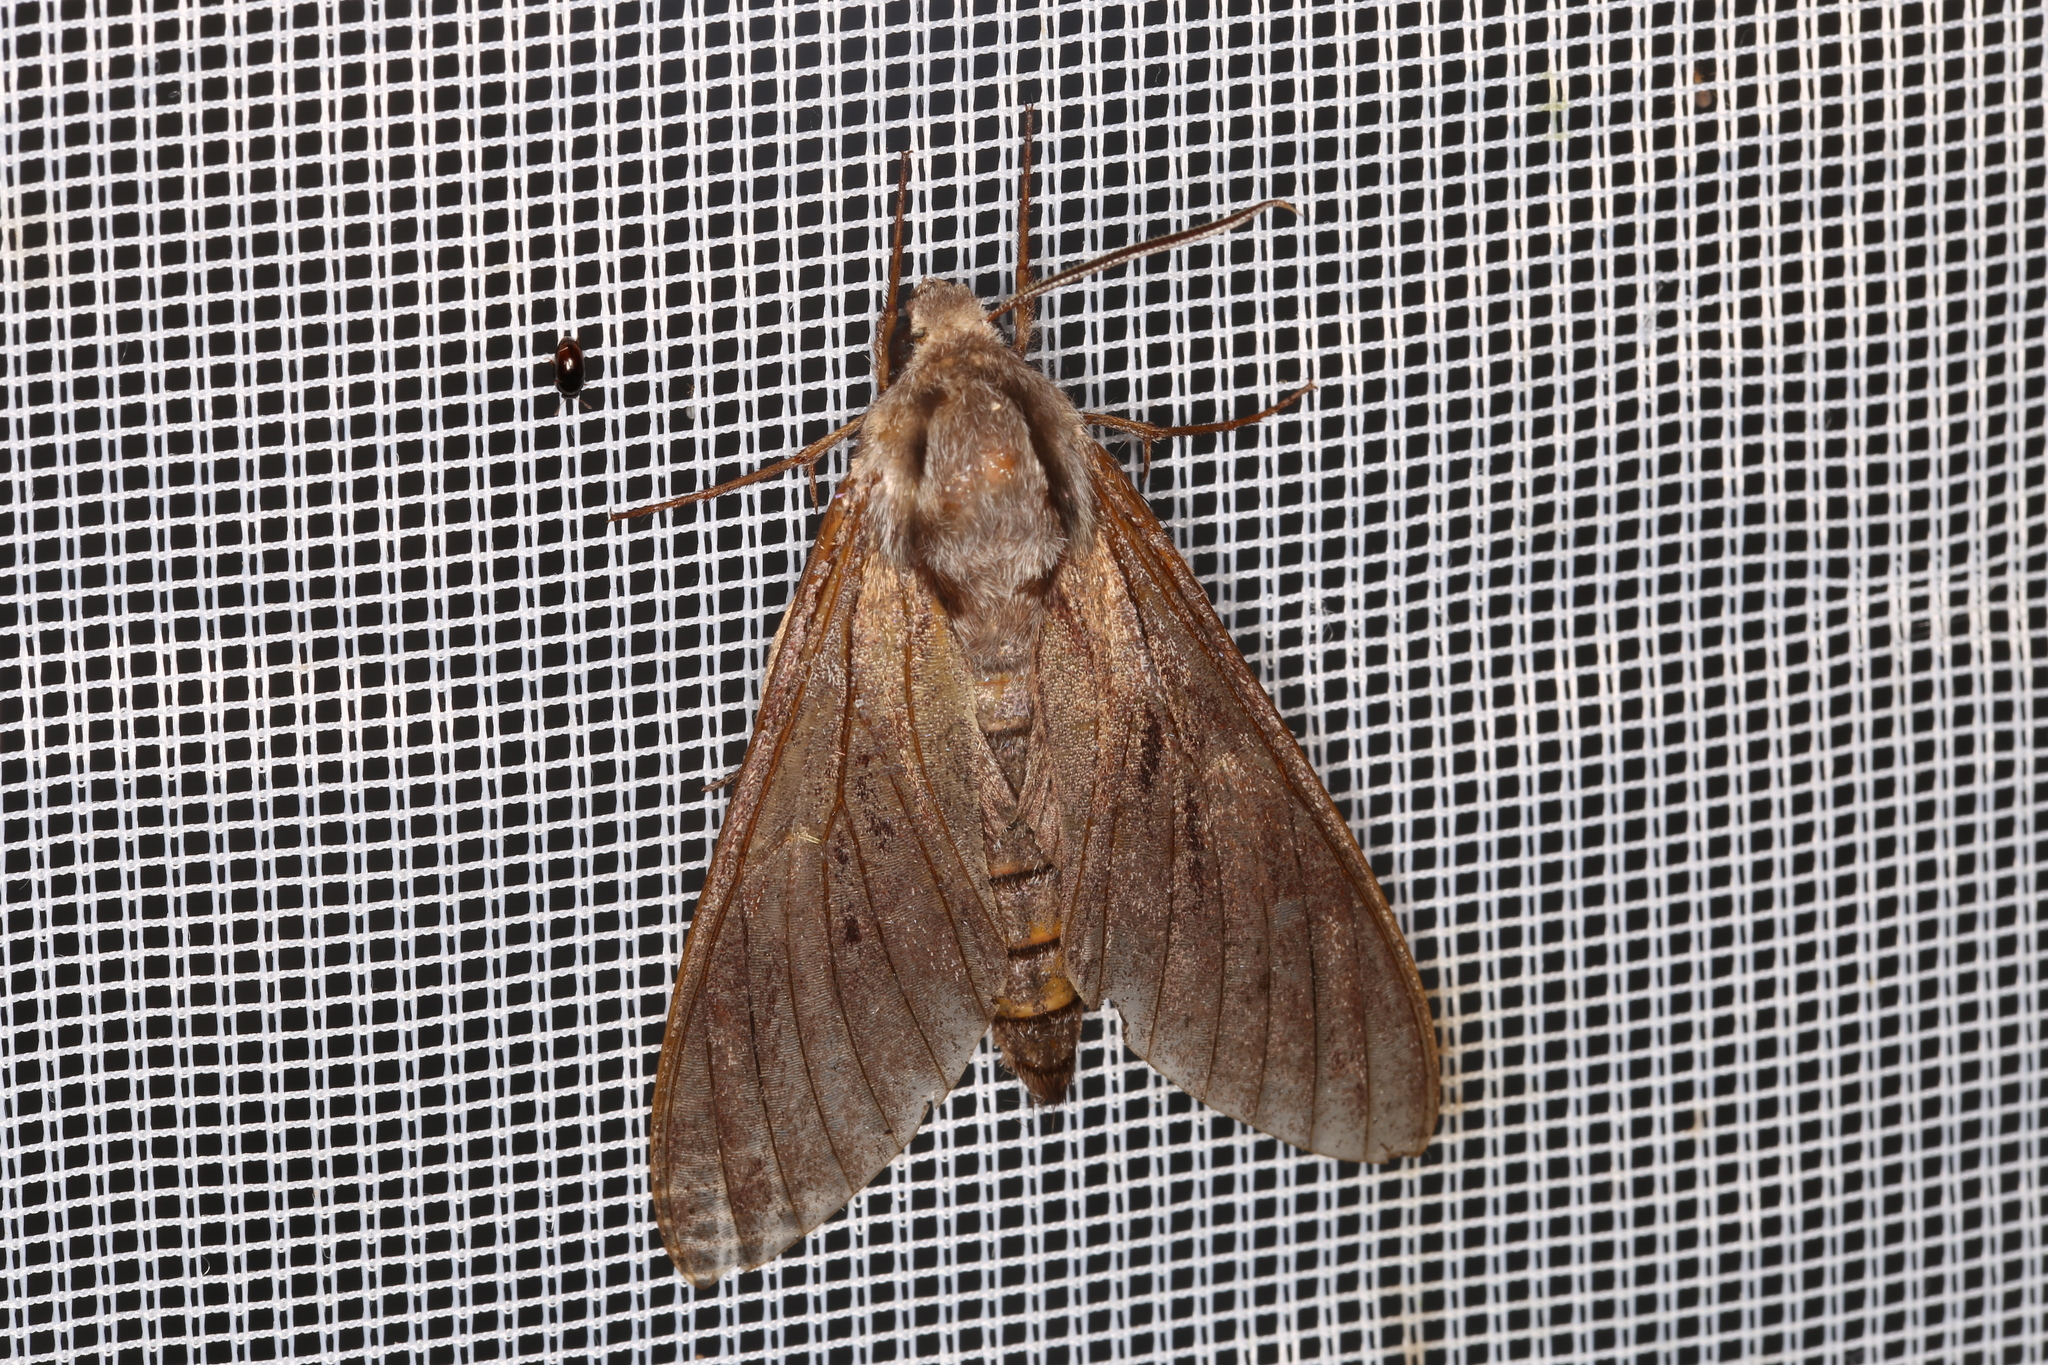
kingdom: Animalia
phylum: Arthropoda
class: Insecta
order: Lepidoptera
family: Sphingidae
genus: Sphinx
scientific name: Sphinx pinastri
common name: Pine hawk-moth
